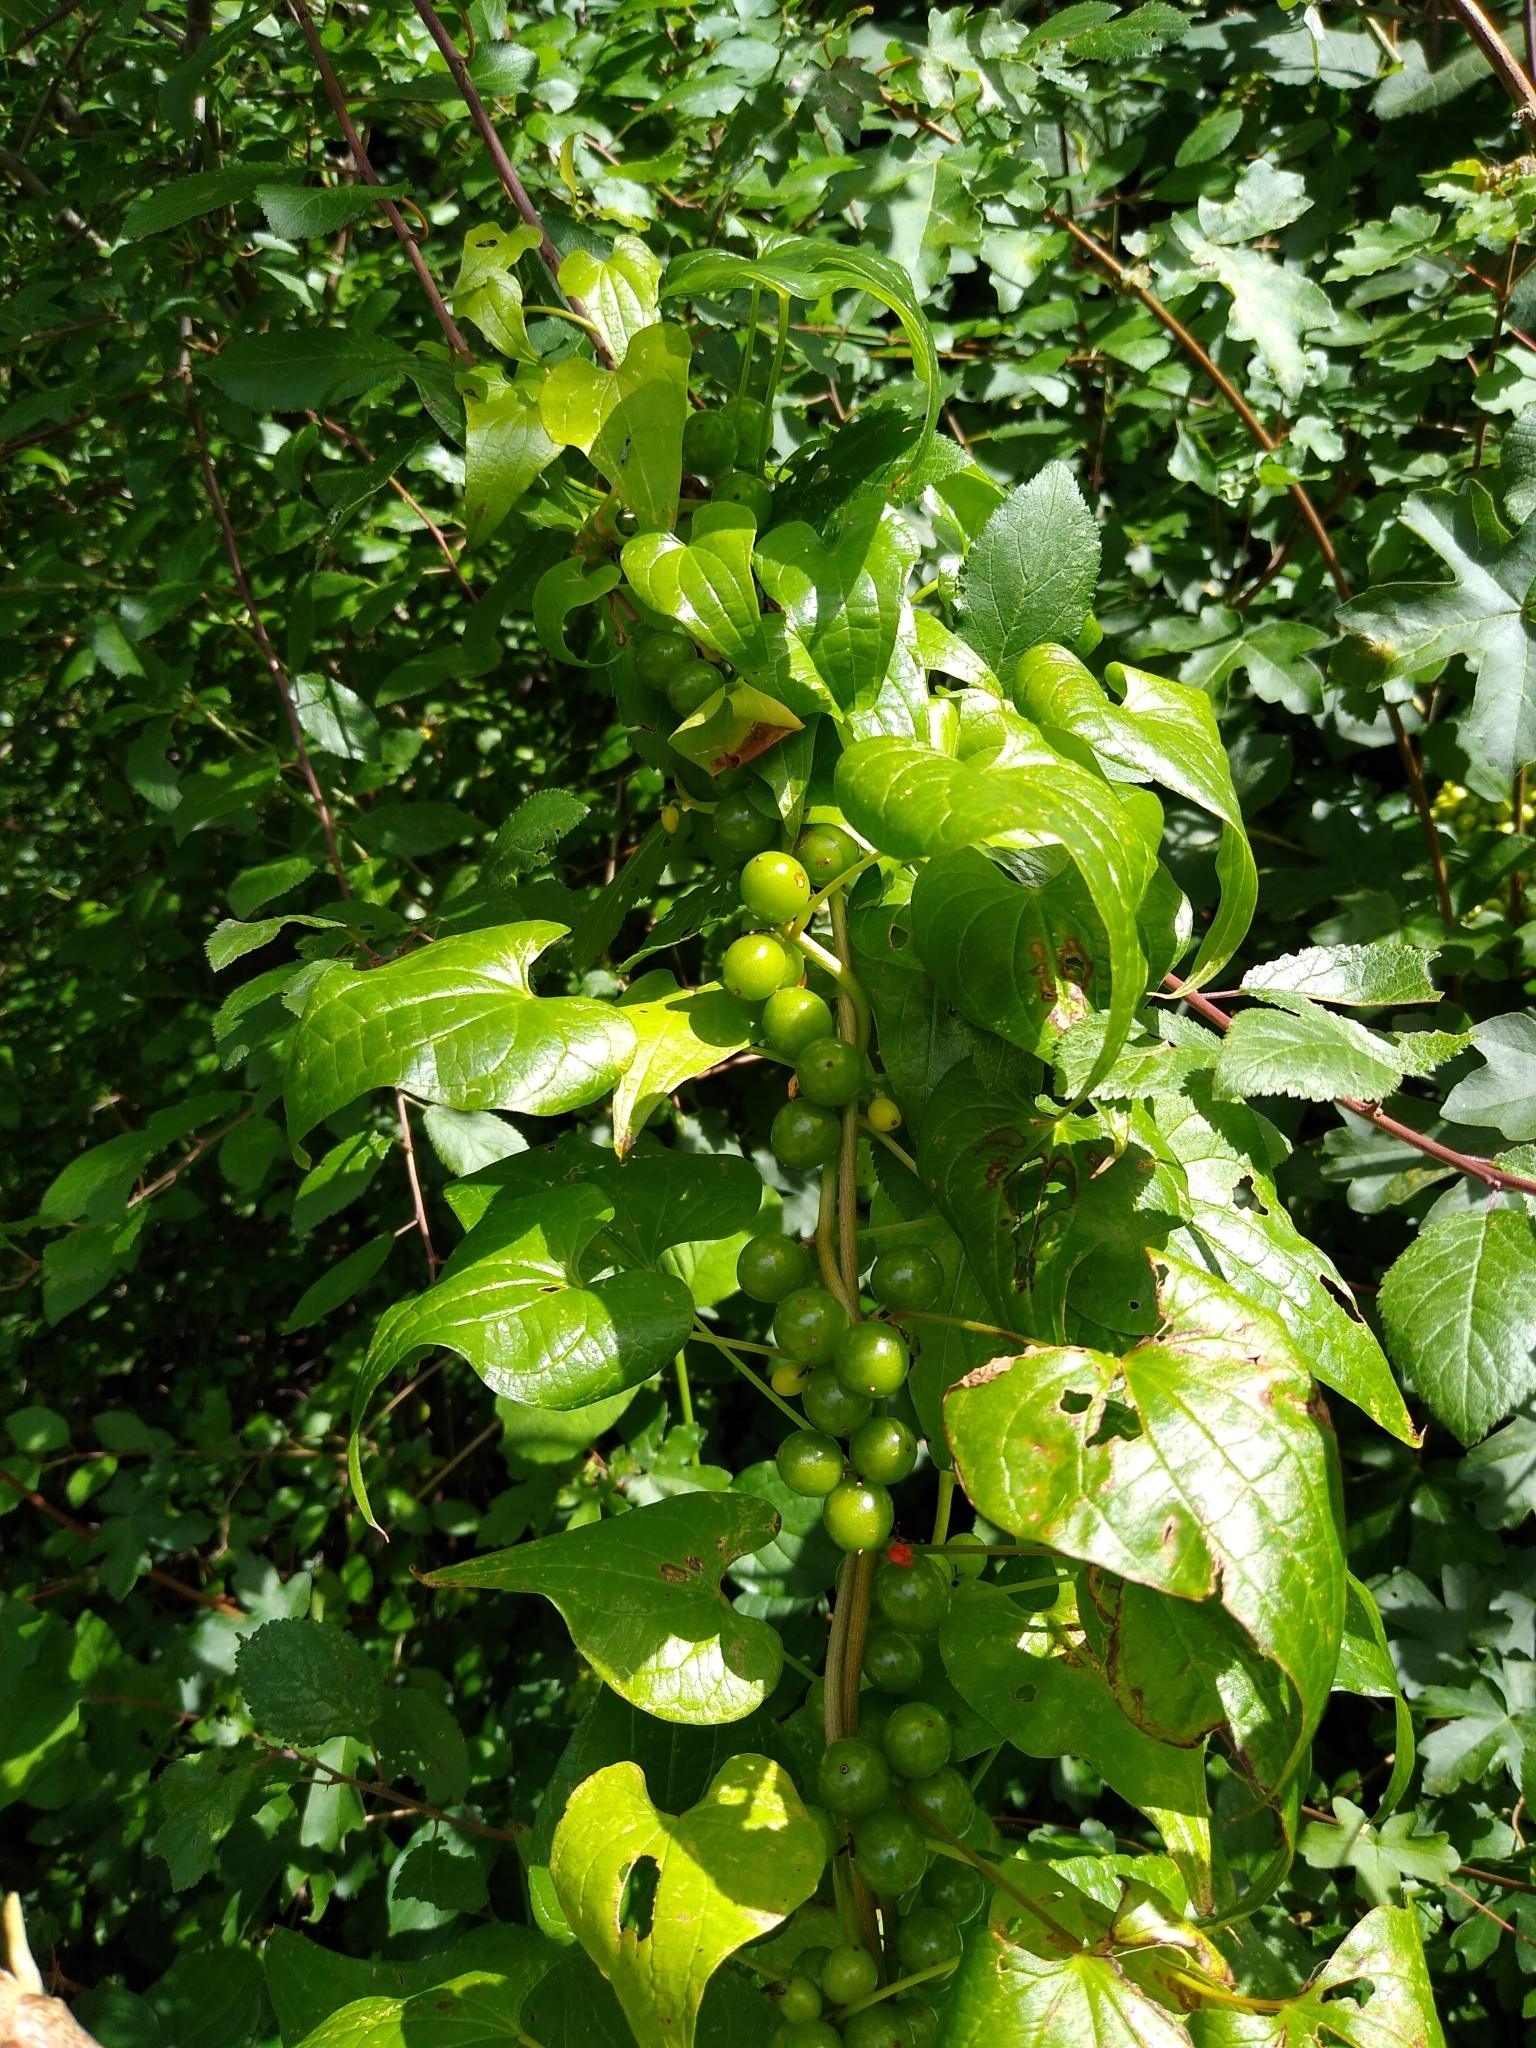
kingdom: Plantae
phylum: Tracheophyta
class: Liliopsida
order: Dioscoreales
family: Dioscoreaceae
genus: Dioscorea
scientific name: Dioscorea communis
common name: Black-bindweed
